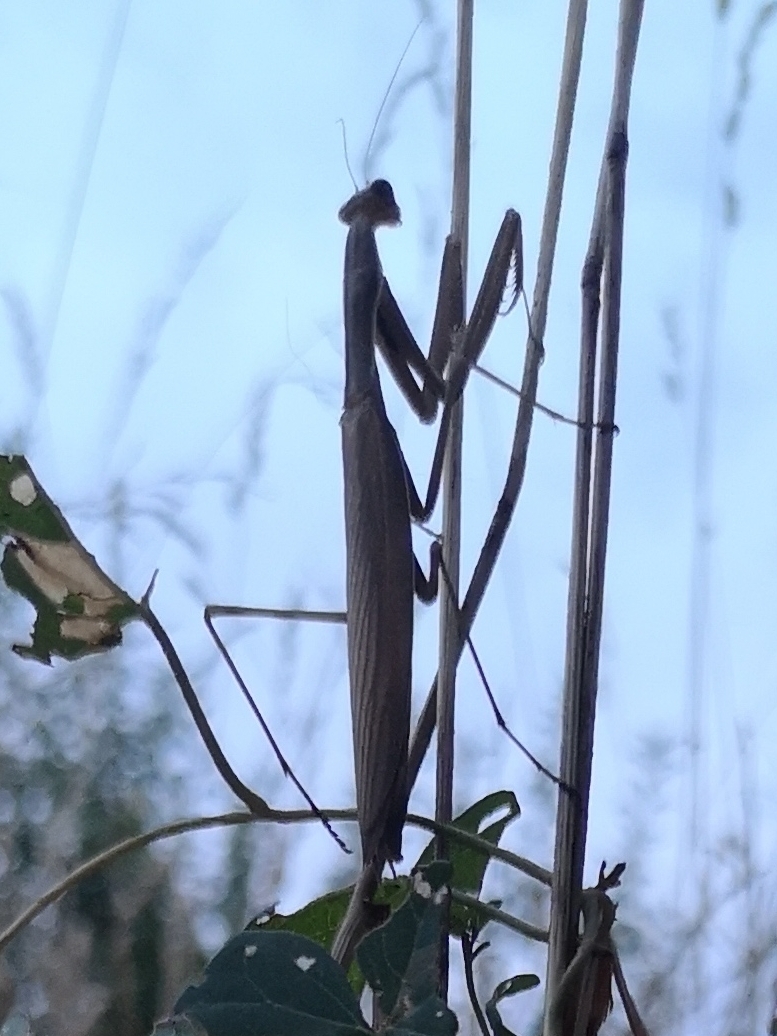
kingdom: Animalia
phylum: Arthropoda
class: Insecta
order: Mantodea
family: Mantidae
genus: Mantis
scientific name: Mantis religiosa
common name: Praying mantis
